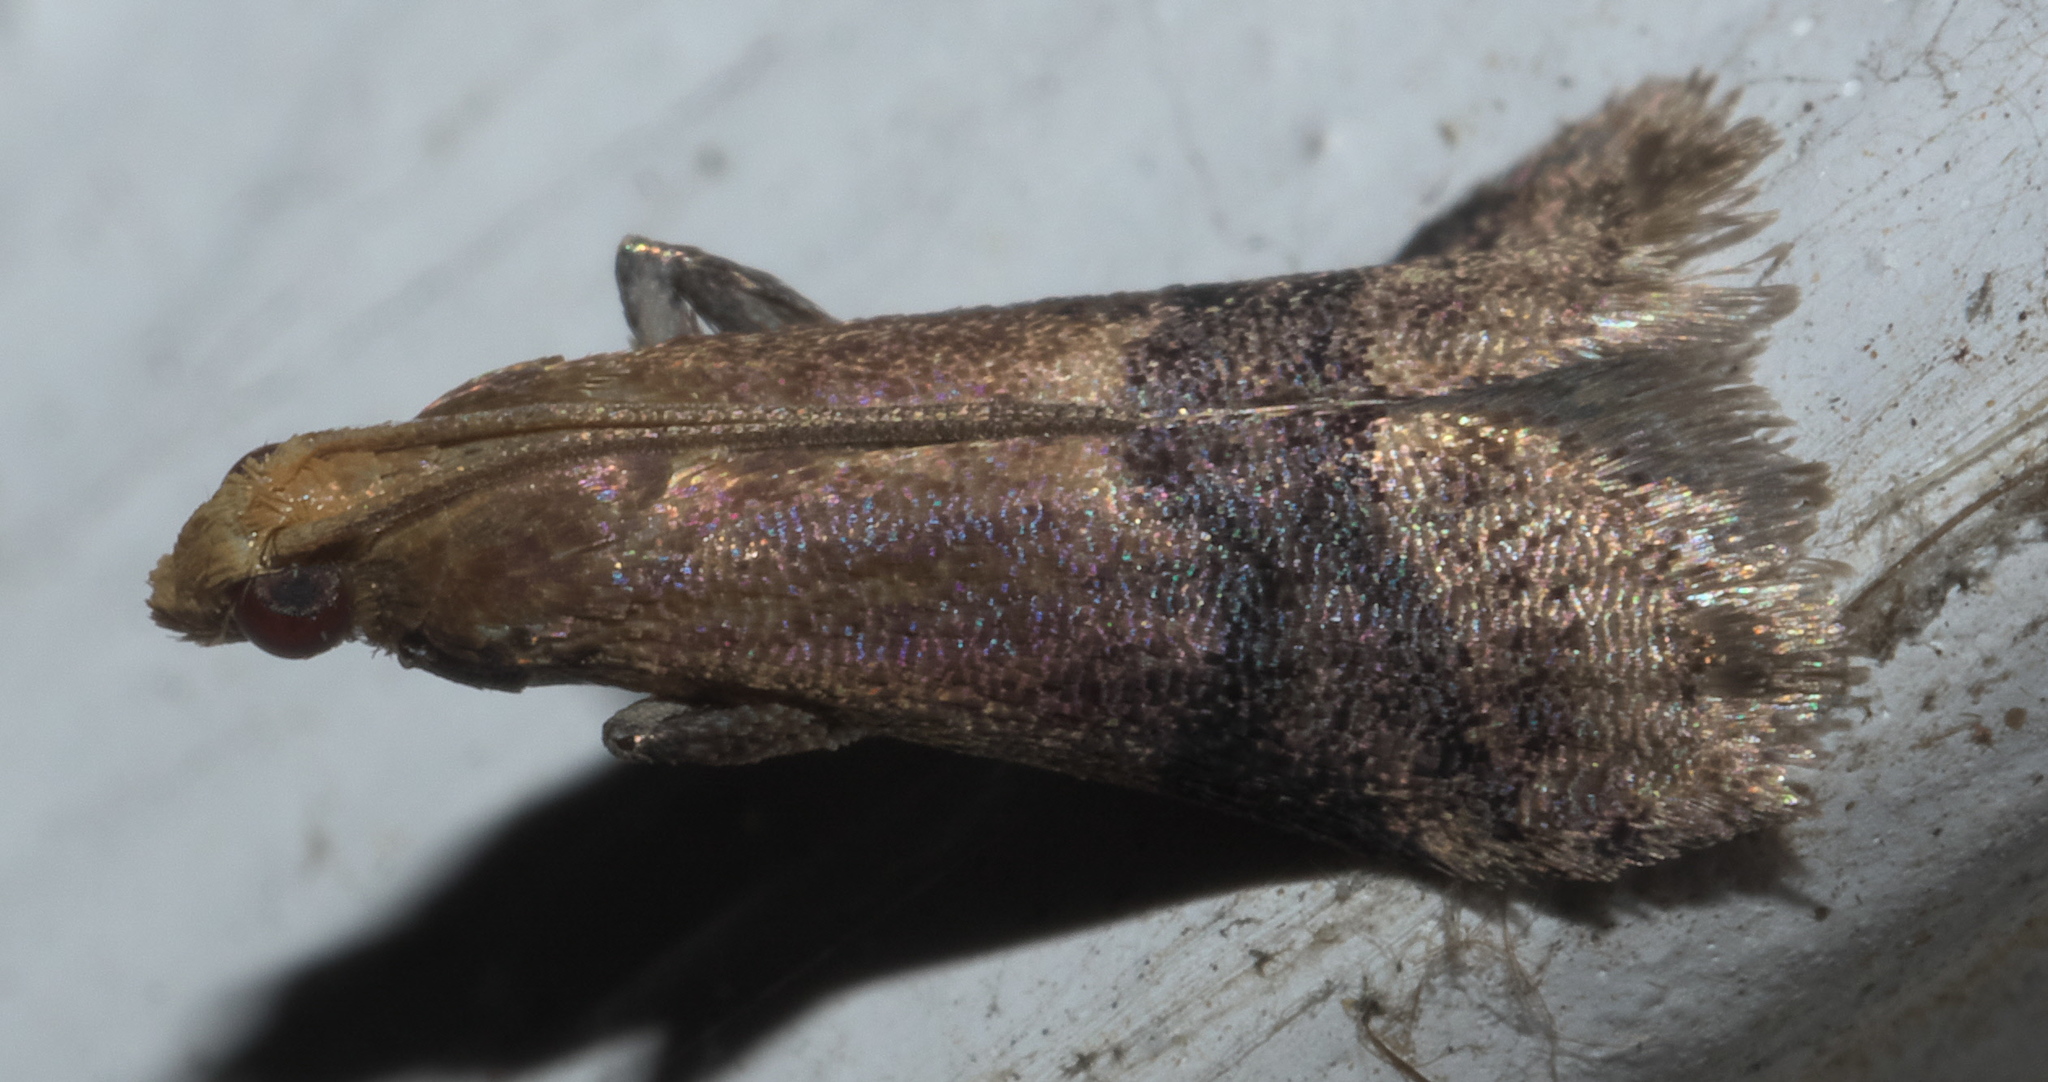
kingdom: Animalia
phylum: Arthropoda
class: Insecta
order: Lepidoptera
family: Pyralidae
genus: Eulogia
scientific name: Eulogia ochrifrontella
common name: Broad-banded eulogia moth
